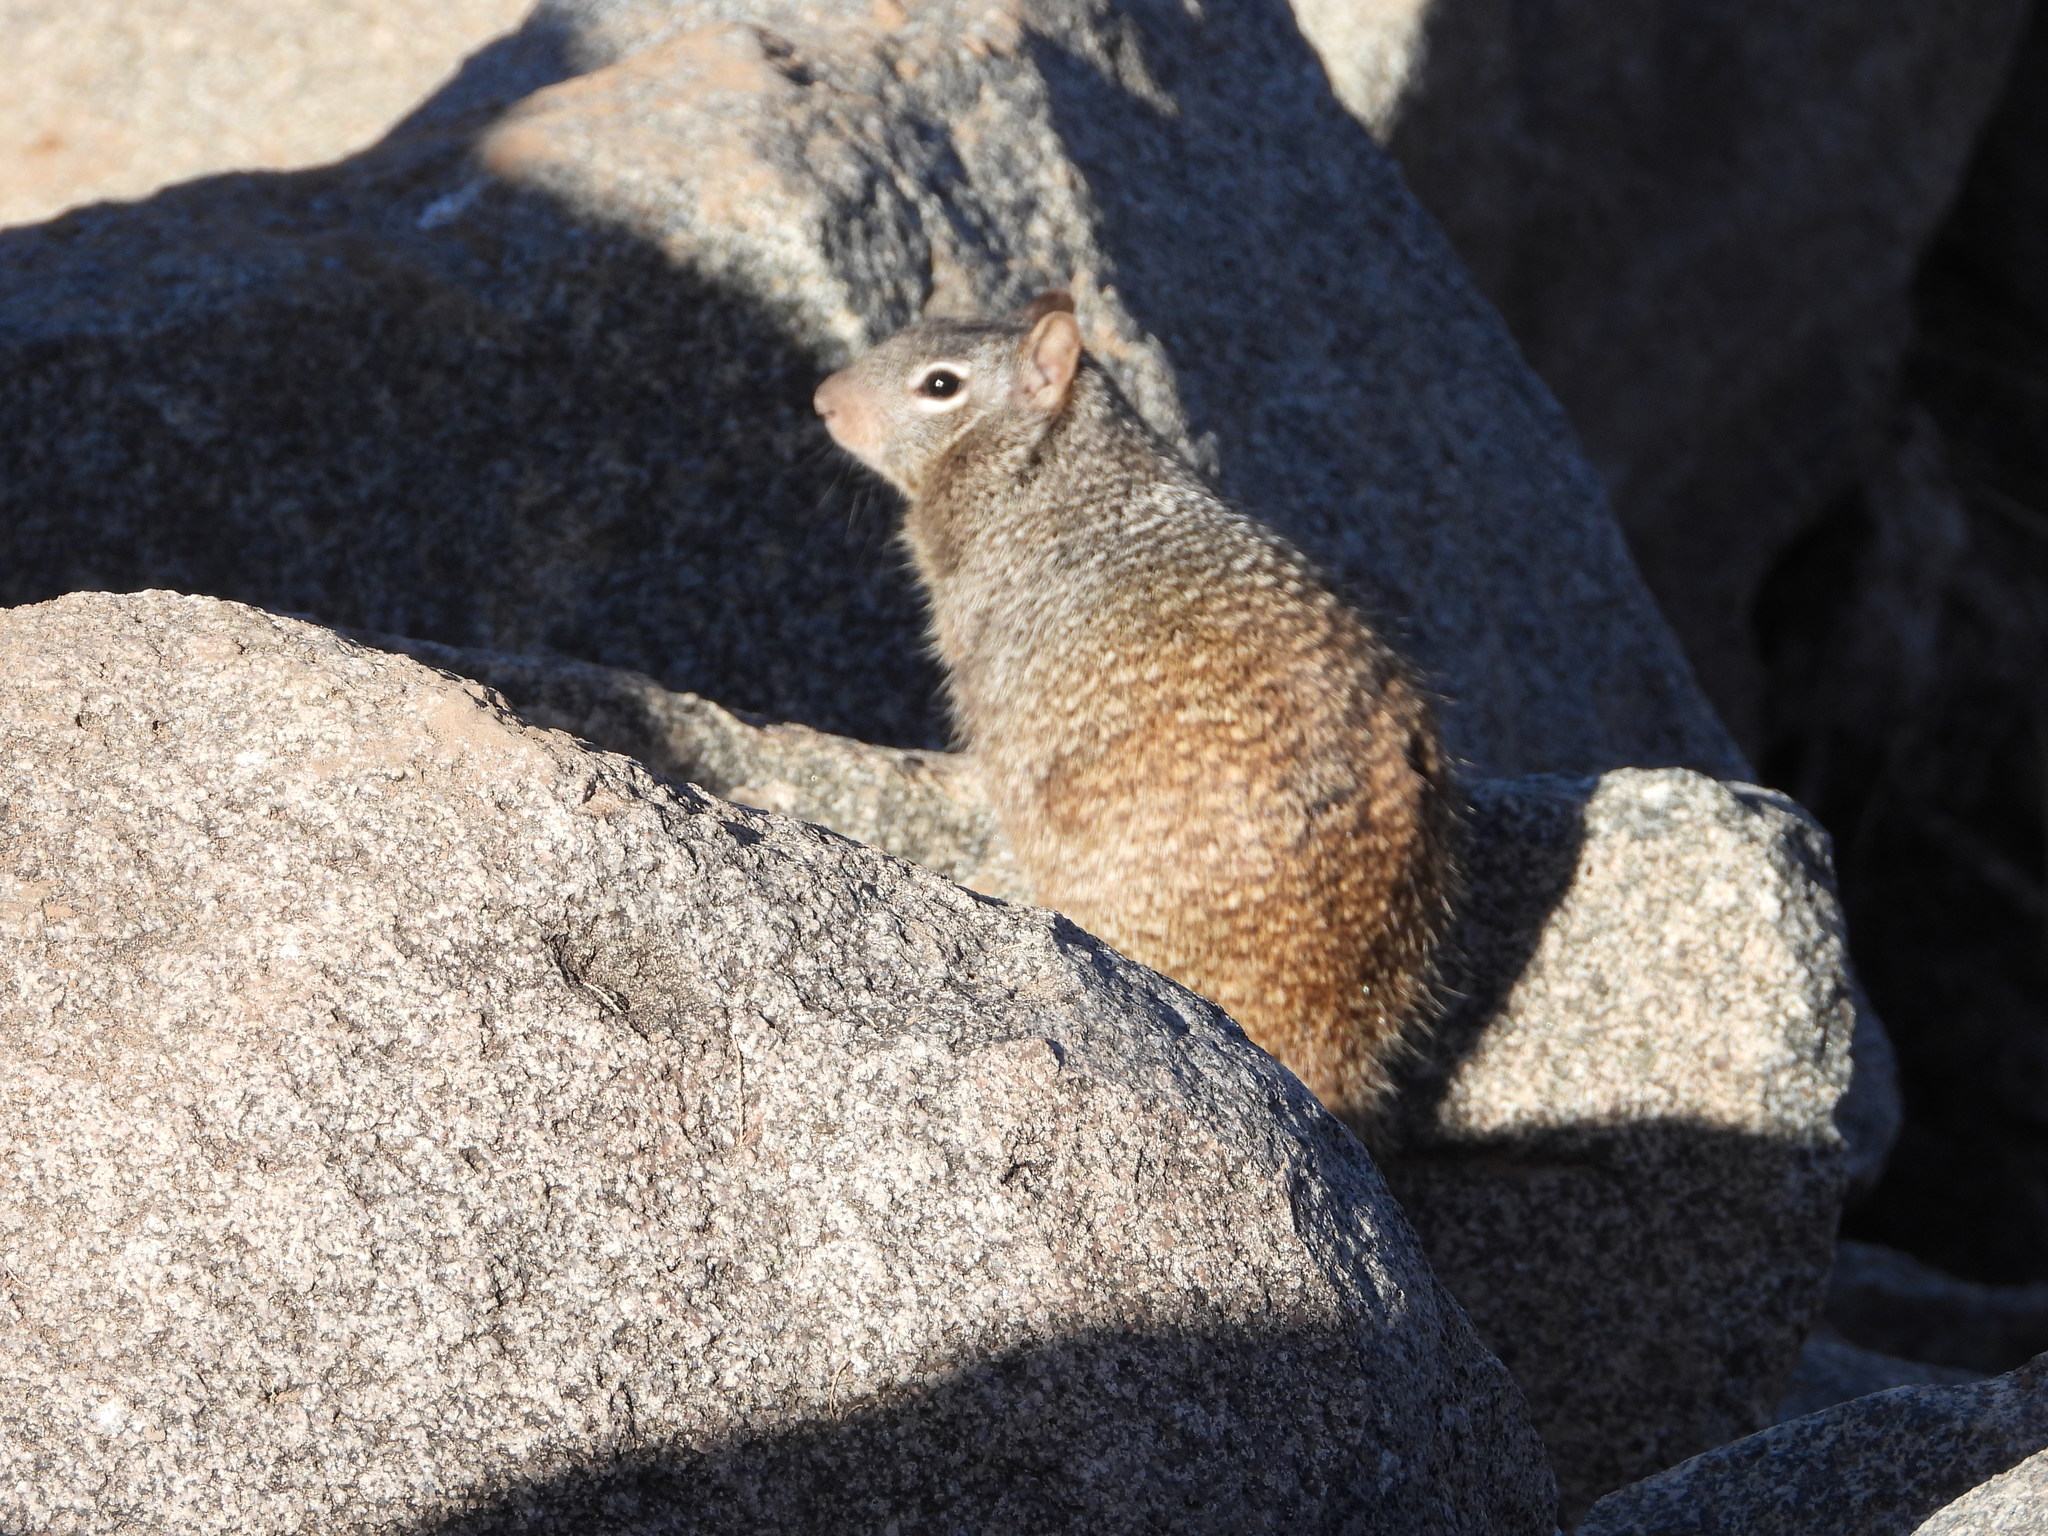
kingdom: Animalia
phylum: Chordata
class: Mammalia
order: Rodentia
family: Sciuridae
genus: Otospermophilus
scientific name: Otospermophilus variegatus
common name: Rock squirrel
